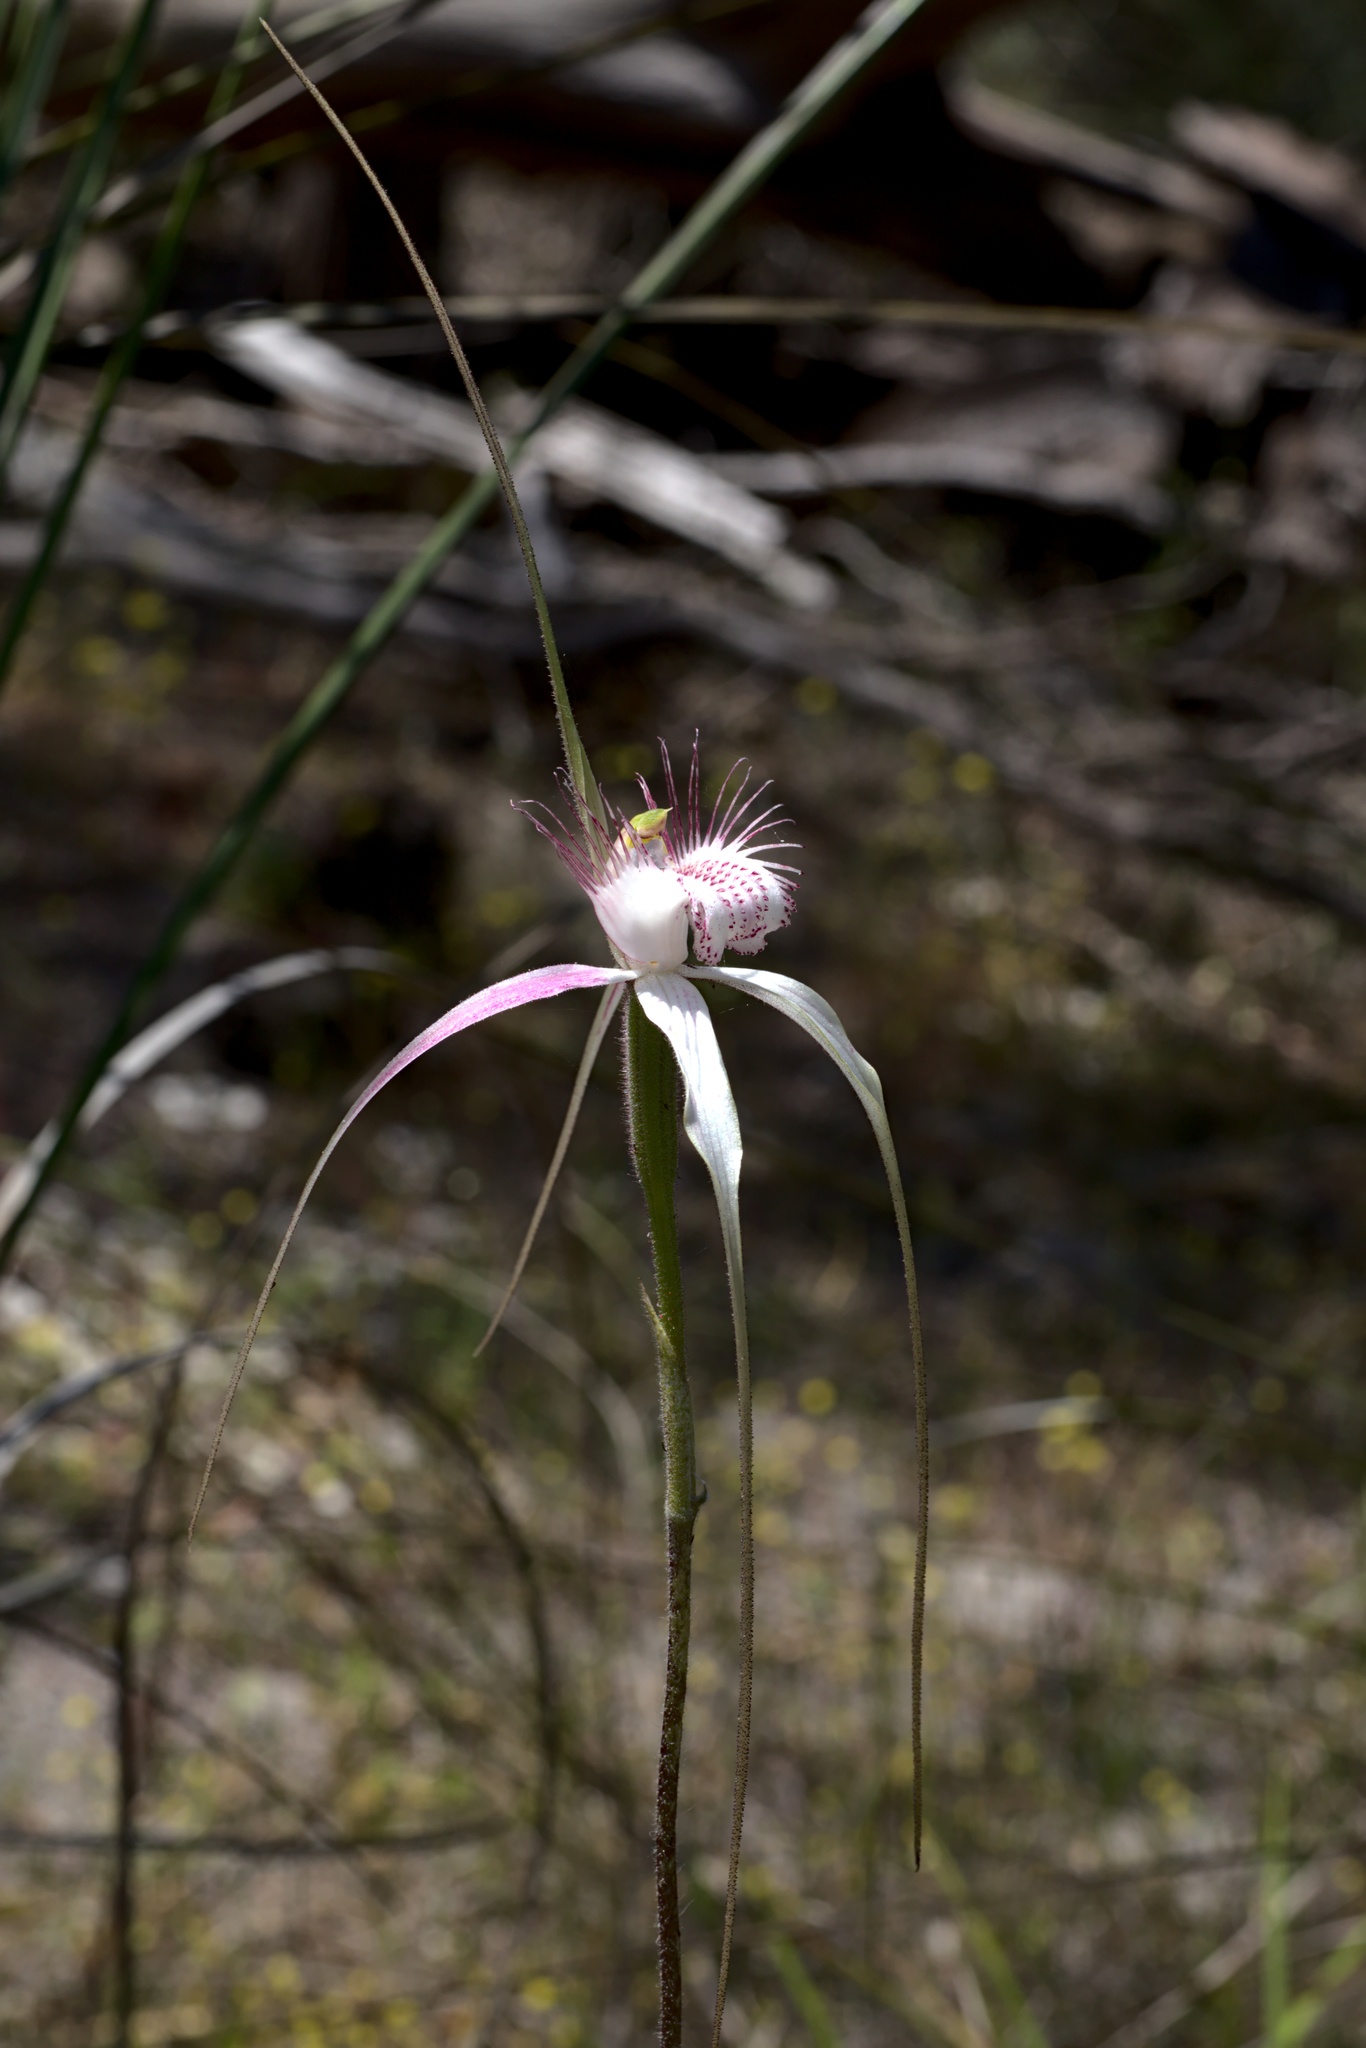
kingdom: Plantae
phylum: Tracheophyta
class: Liliopsida
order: Asparagales
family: Orchidaceae
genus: Caladenia
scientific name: Caladenia speciosa
